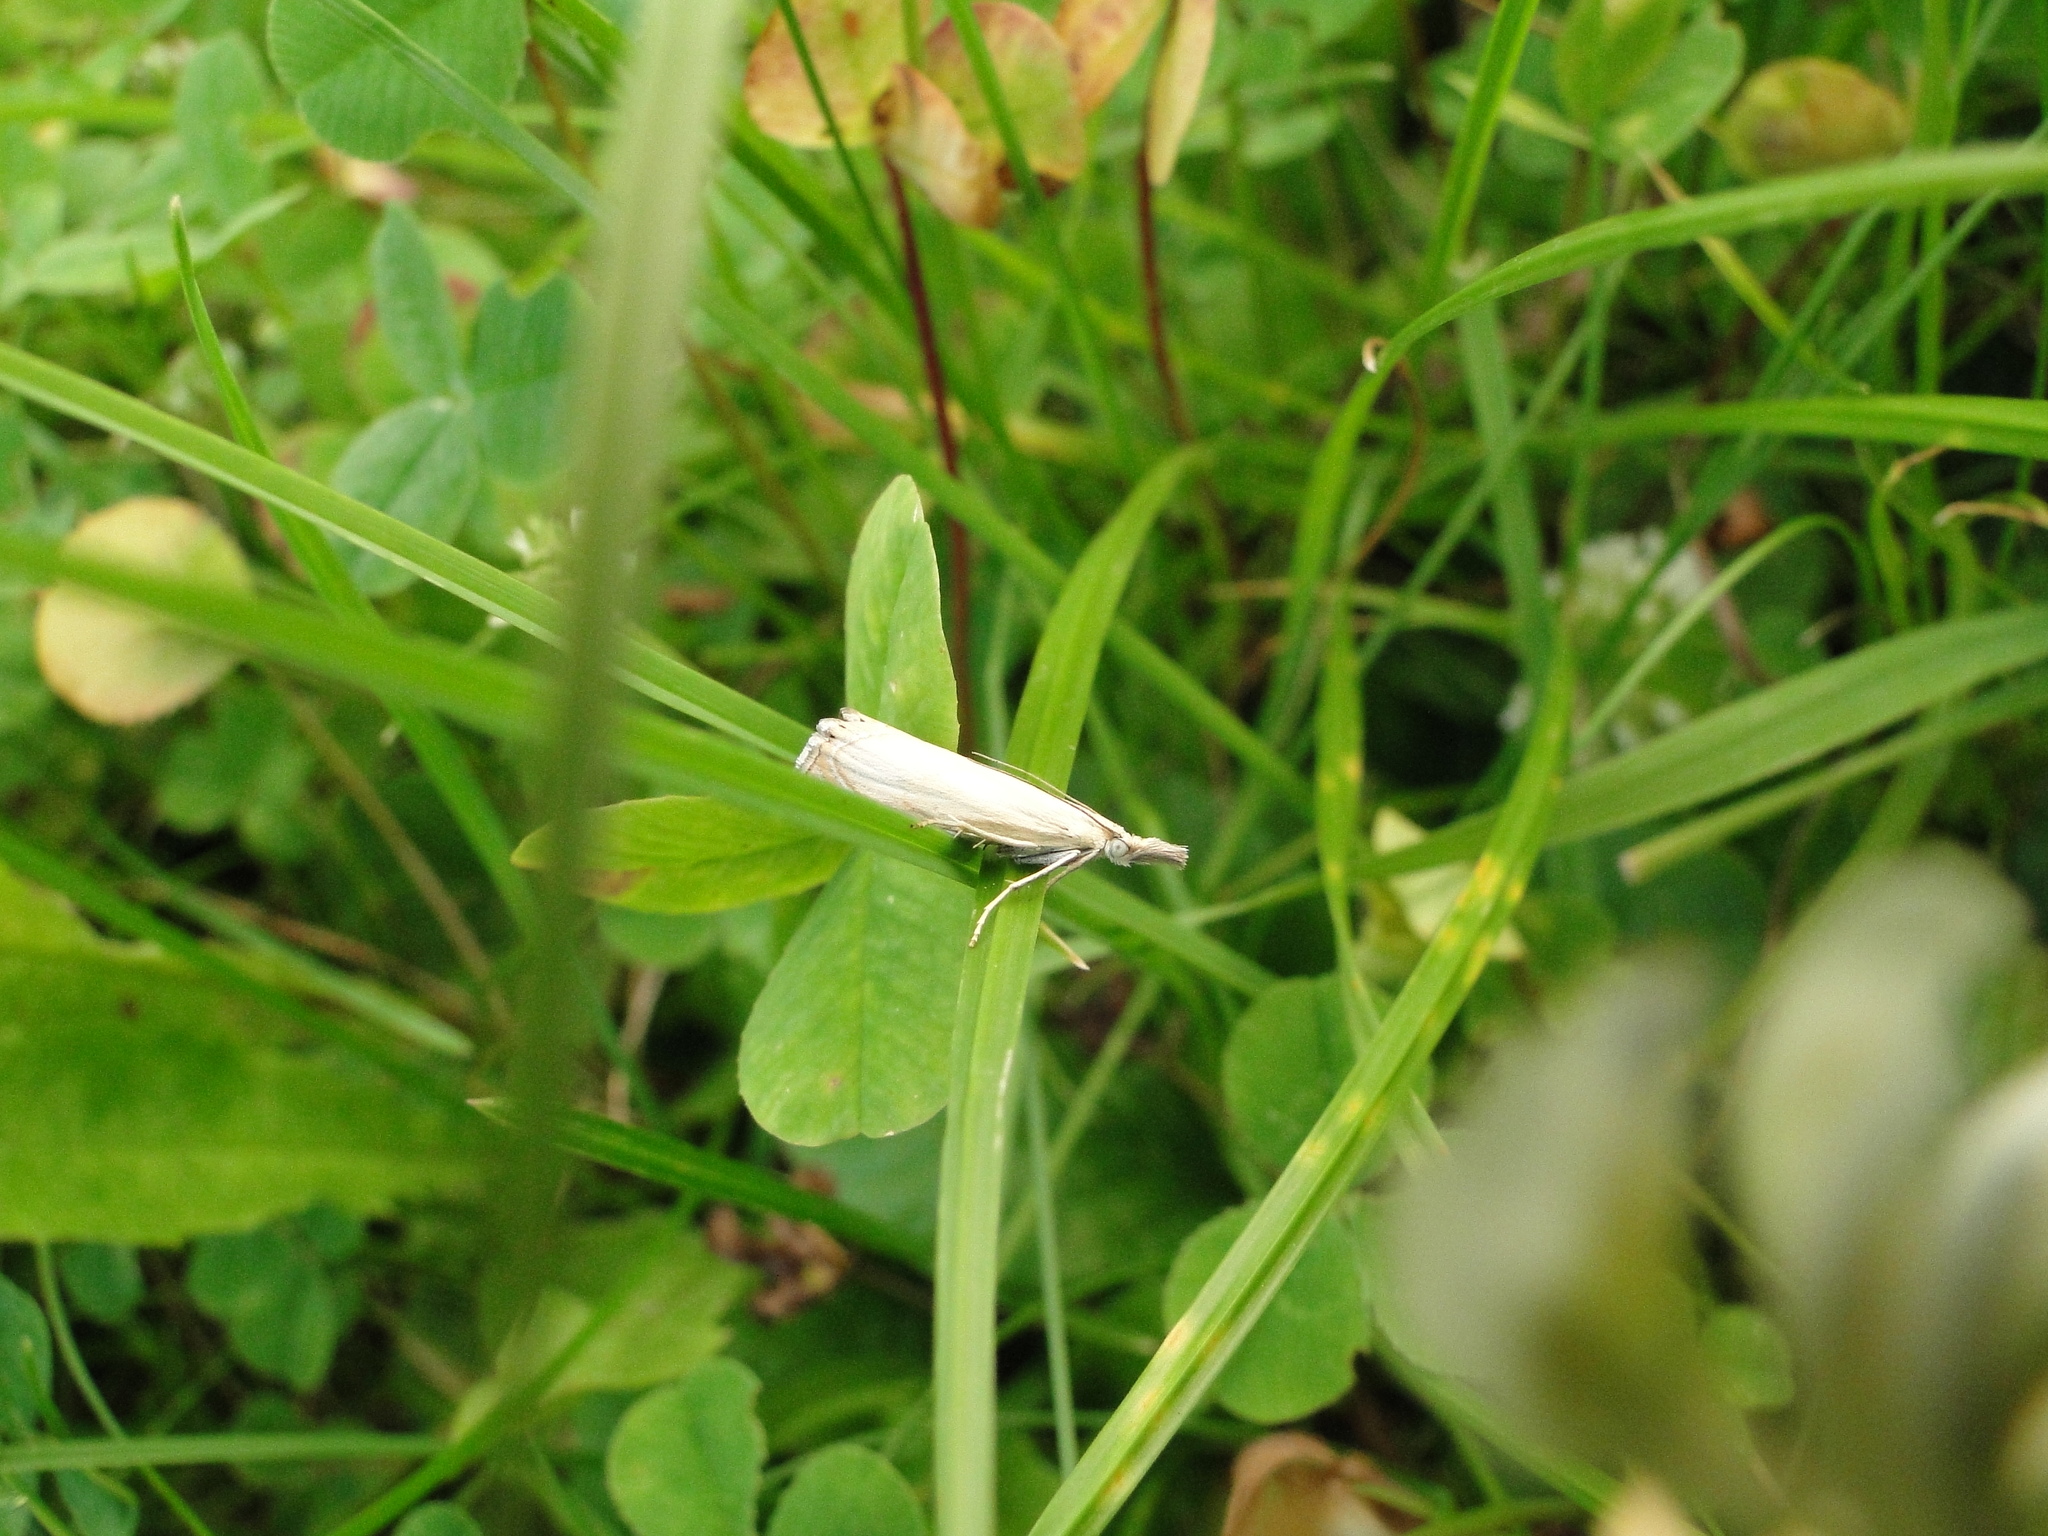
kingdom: Animalia
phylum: Arthropoda
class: Insecta
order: Lepidoptera
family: Crambidae
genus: Chrysoteuchia
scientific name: Chrysoteuchia culmella
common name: Garden grass-veneer
